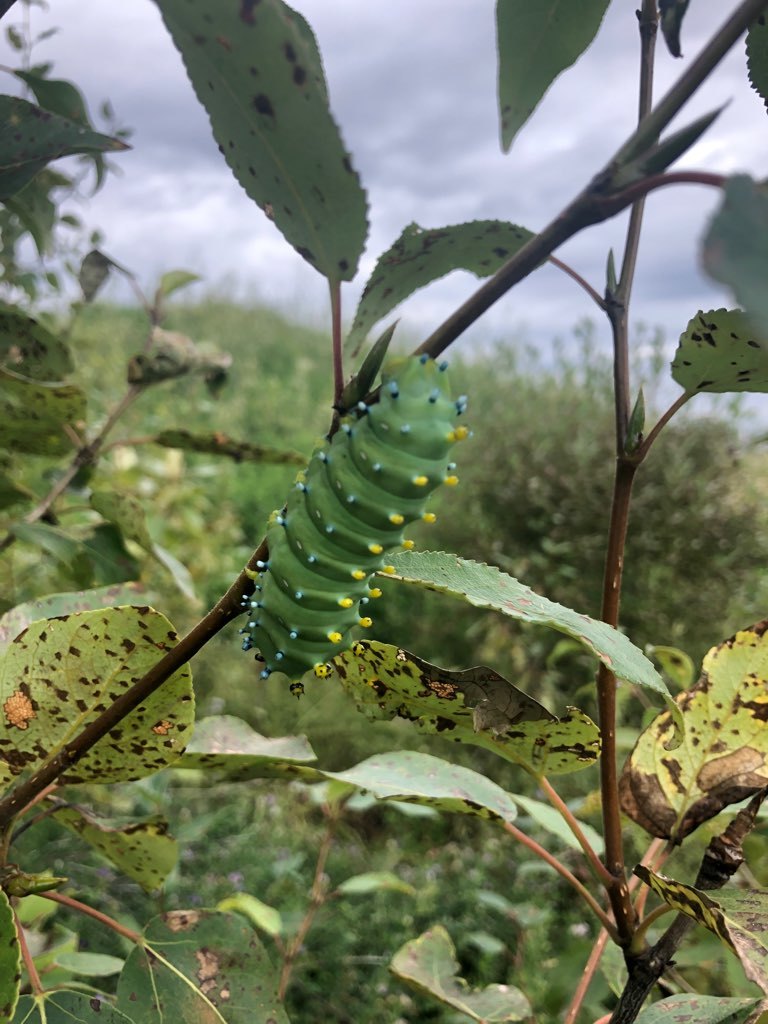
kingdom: Animalia
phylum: Arthropoda
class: Insecta
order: Lepidoptera
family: Saturniidae
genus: Hyalophora
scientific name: Hyalophora gloveri
